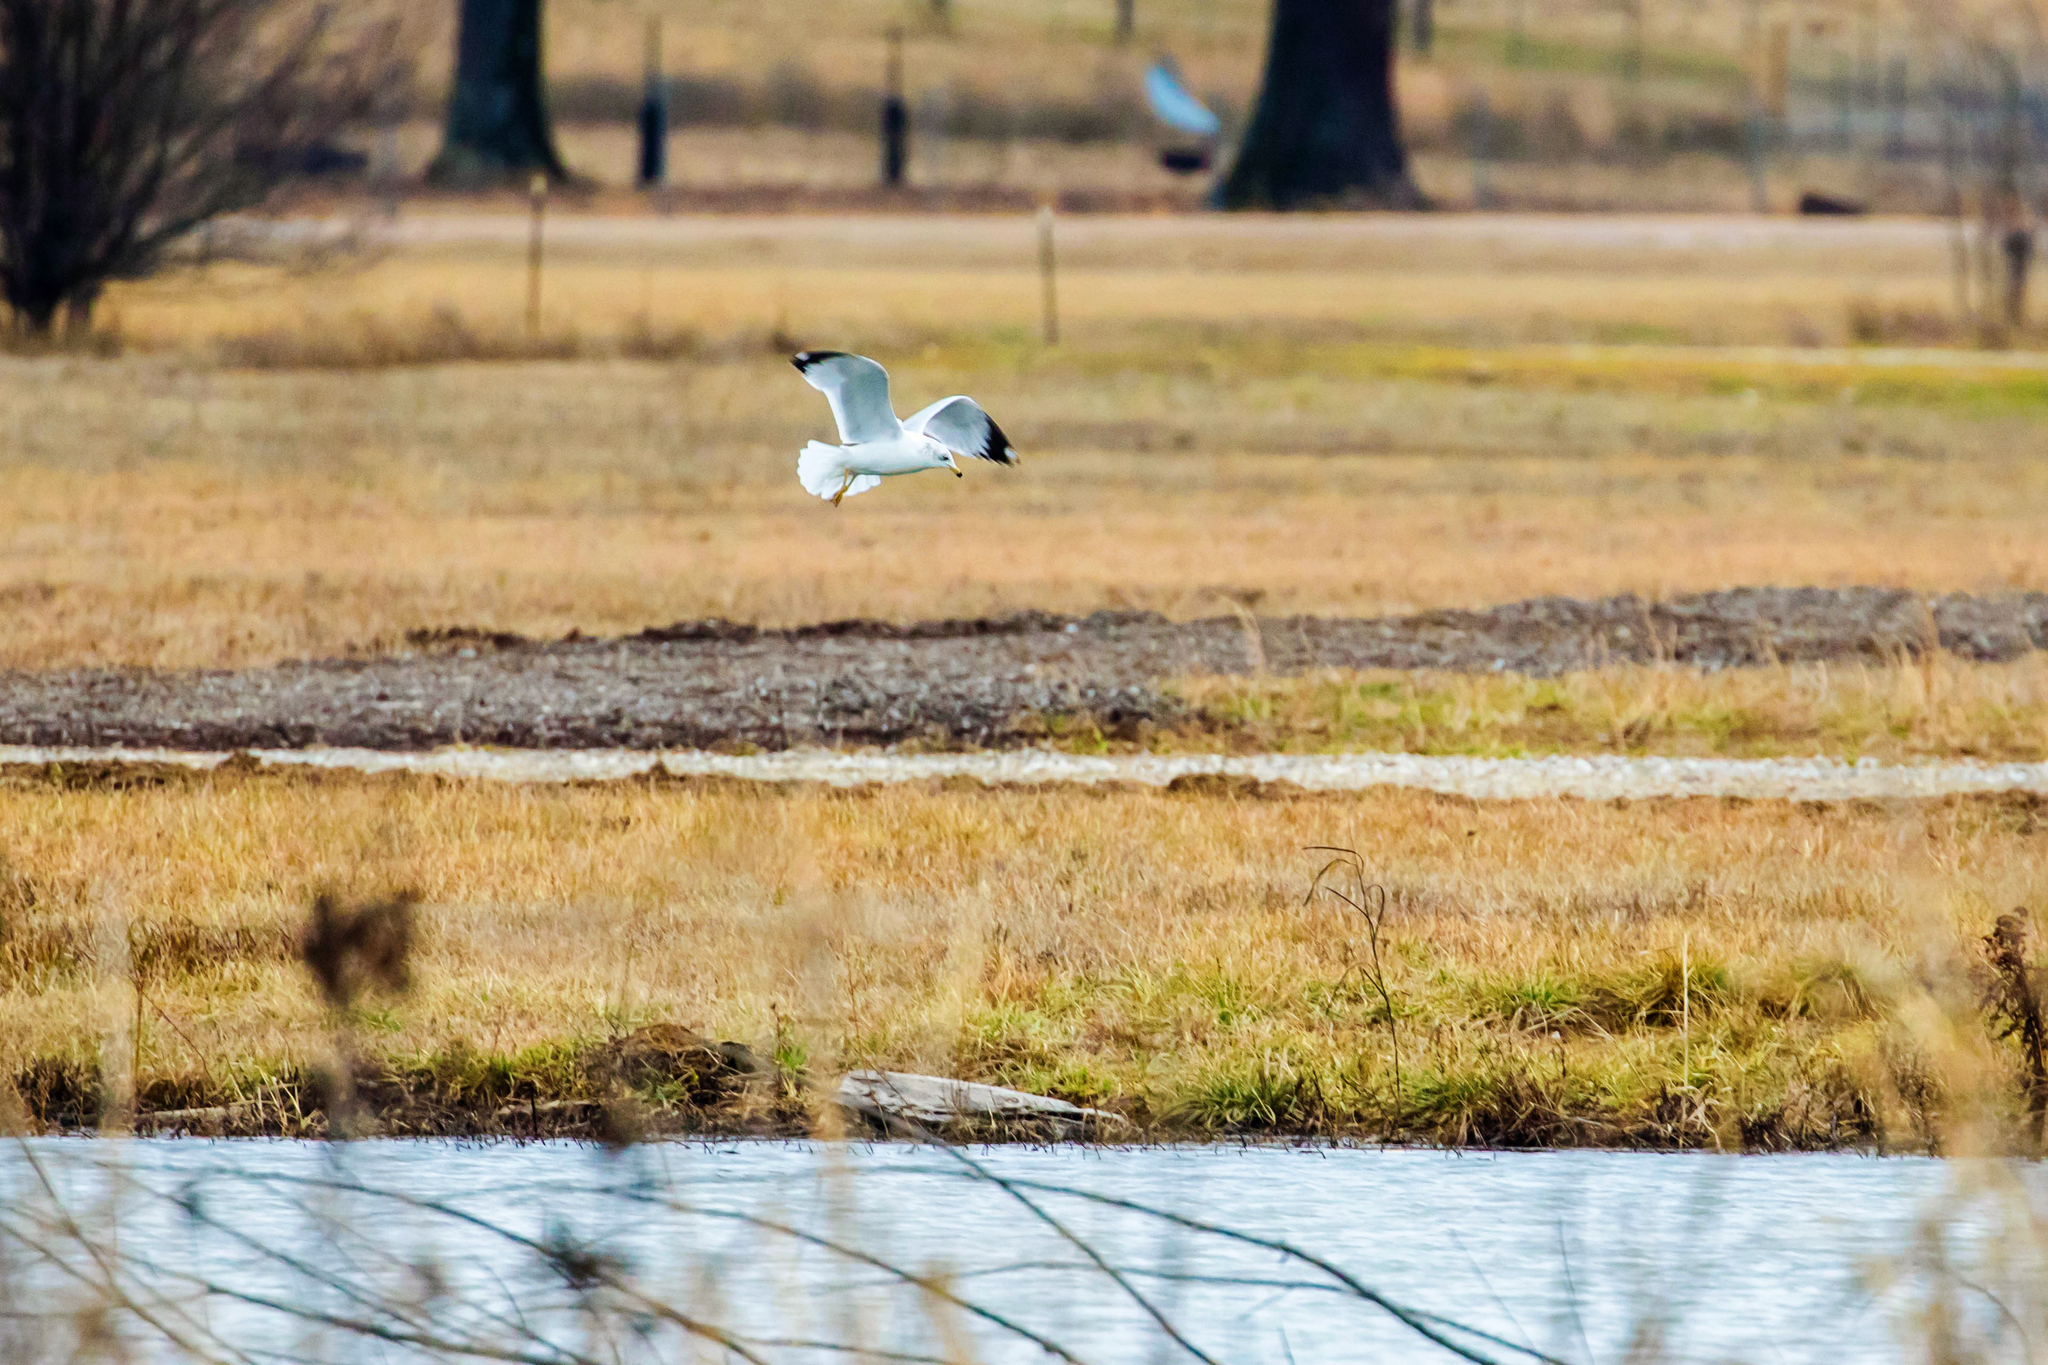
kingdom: Animalia
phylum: Chordata
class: Aves
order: Charadriiformes
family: Laridae
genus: Larus
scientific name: Larus delawarensis
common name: Ring-billed gull
